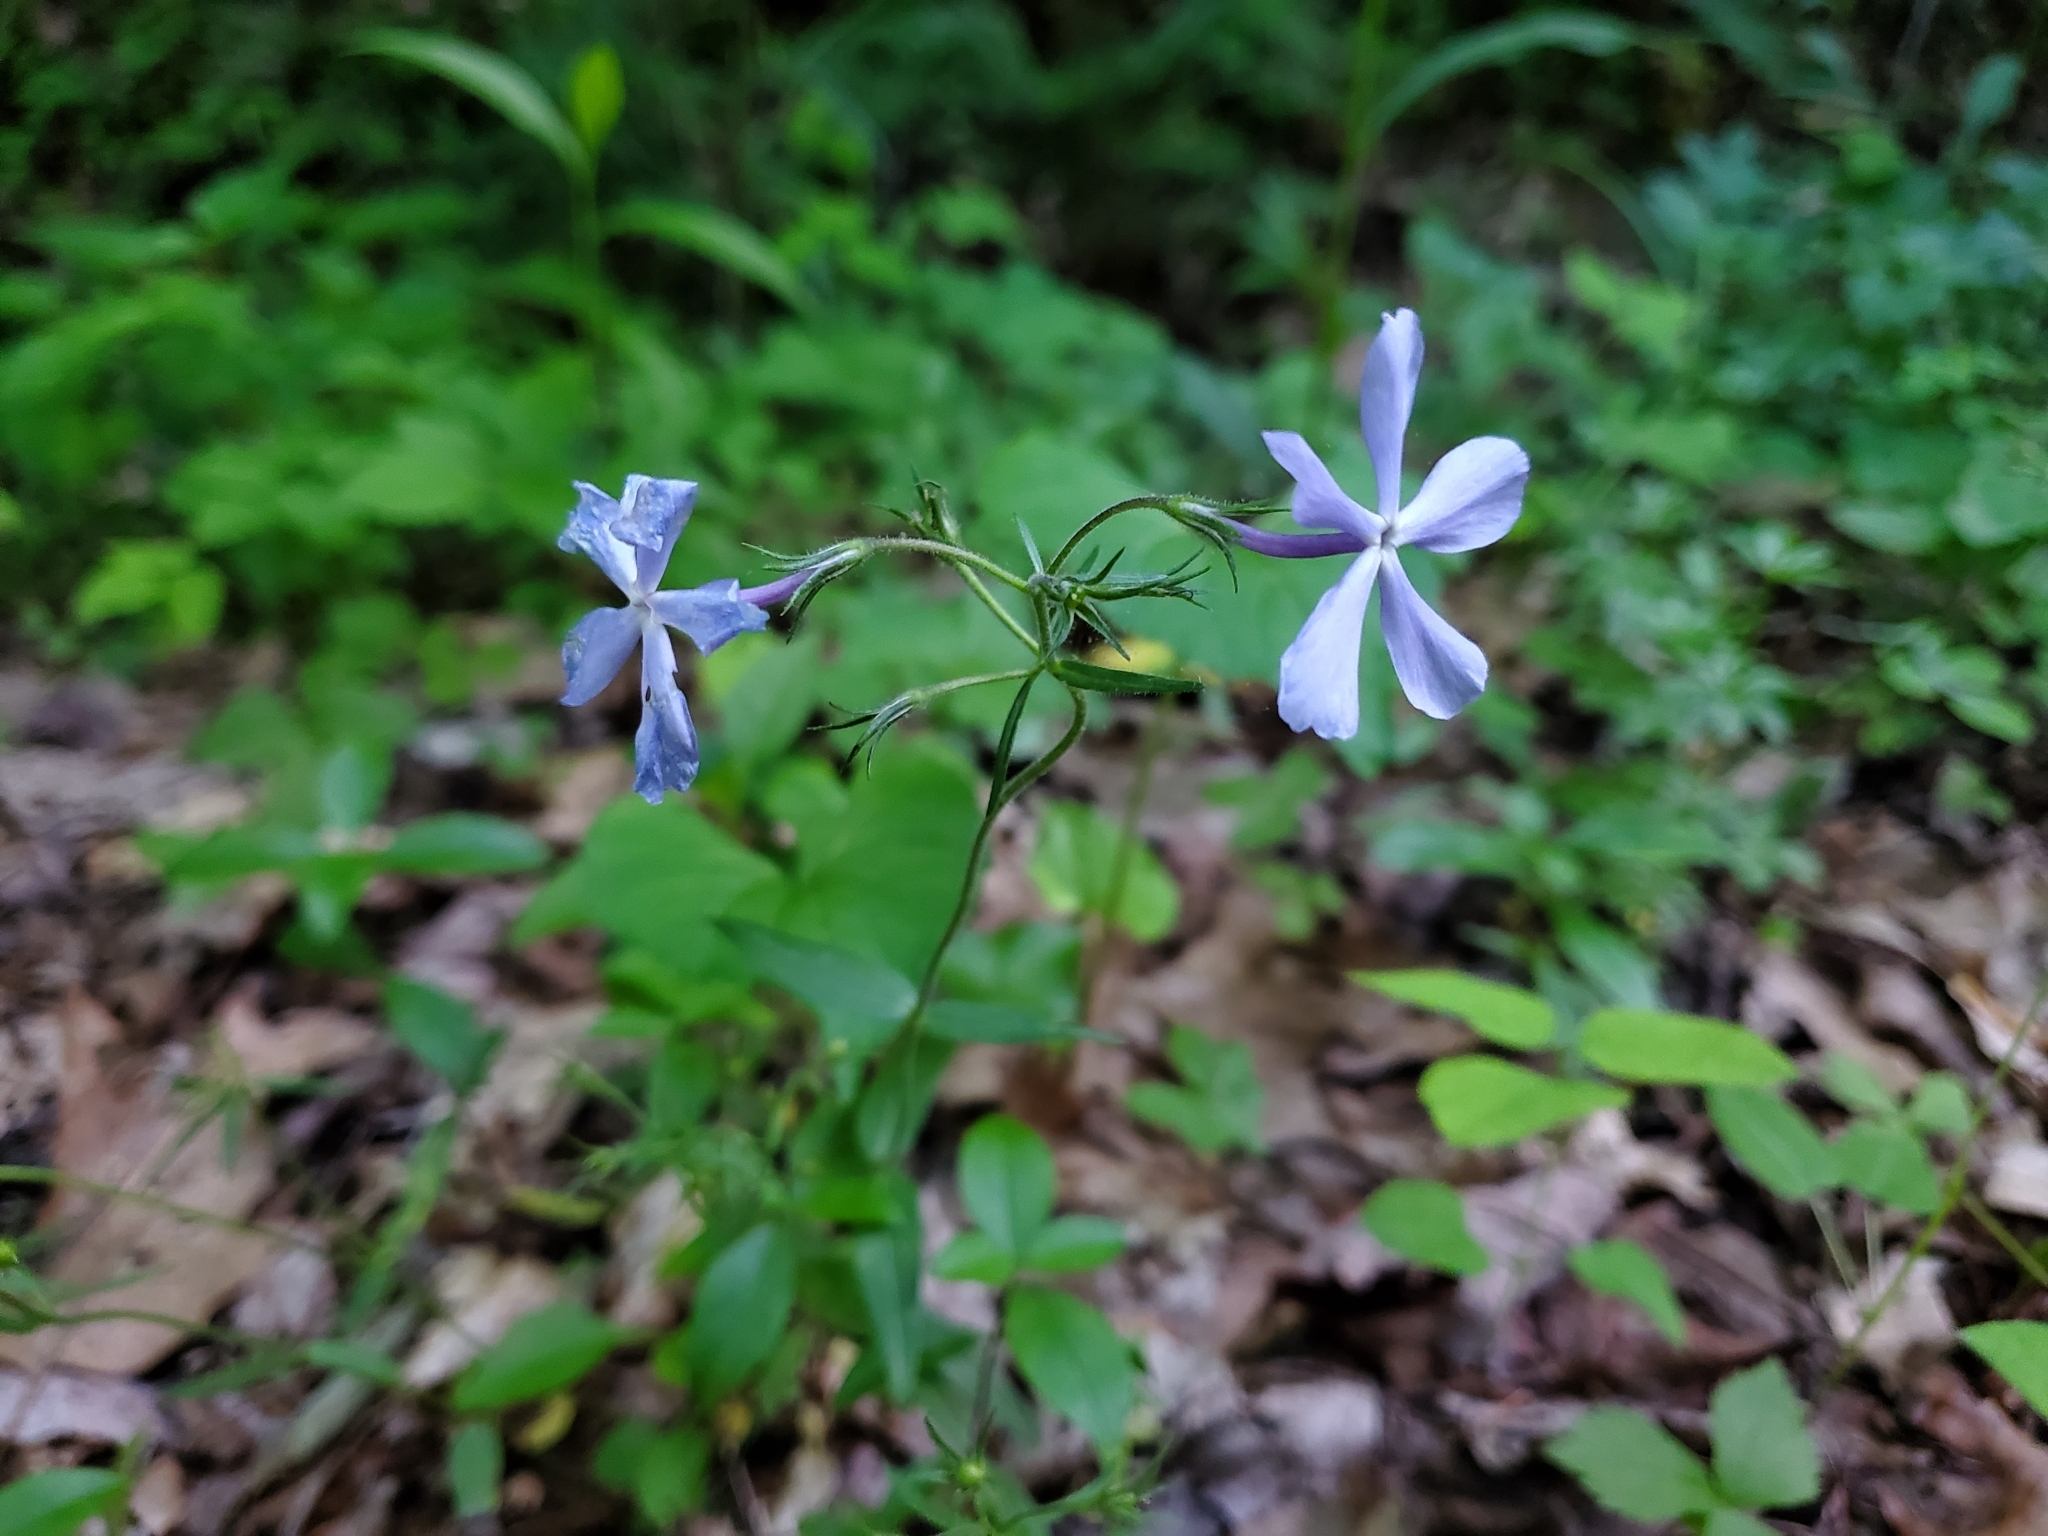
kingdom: Plantae
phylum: Tracheophyta
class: Magnoliopsida
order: Ericales
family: Polemoniaceae
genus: Phlox
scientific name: Phlox divaricata
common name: Blue phlox
